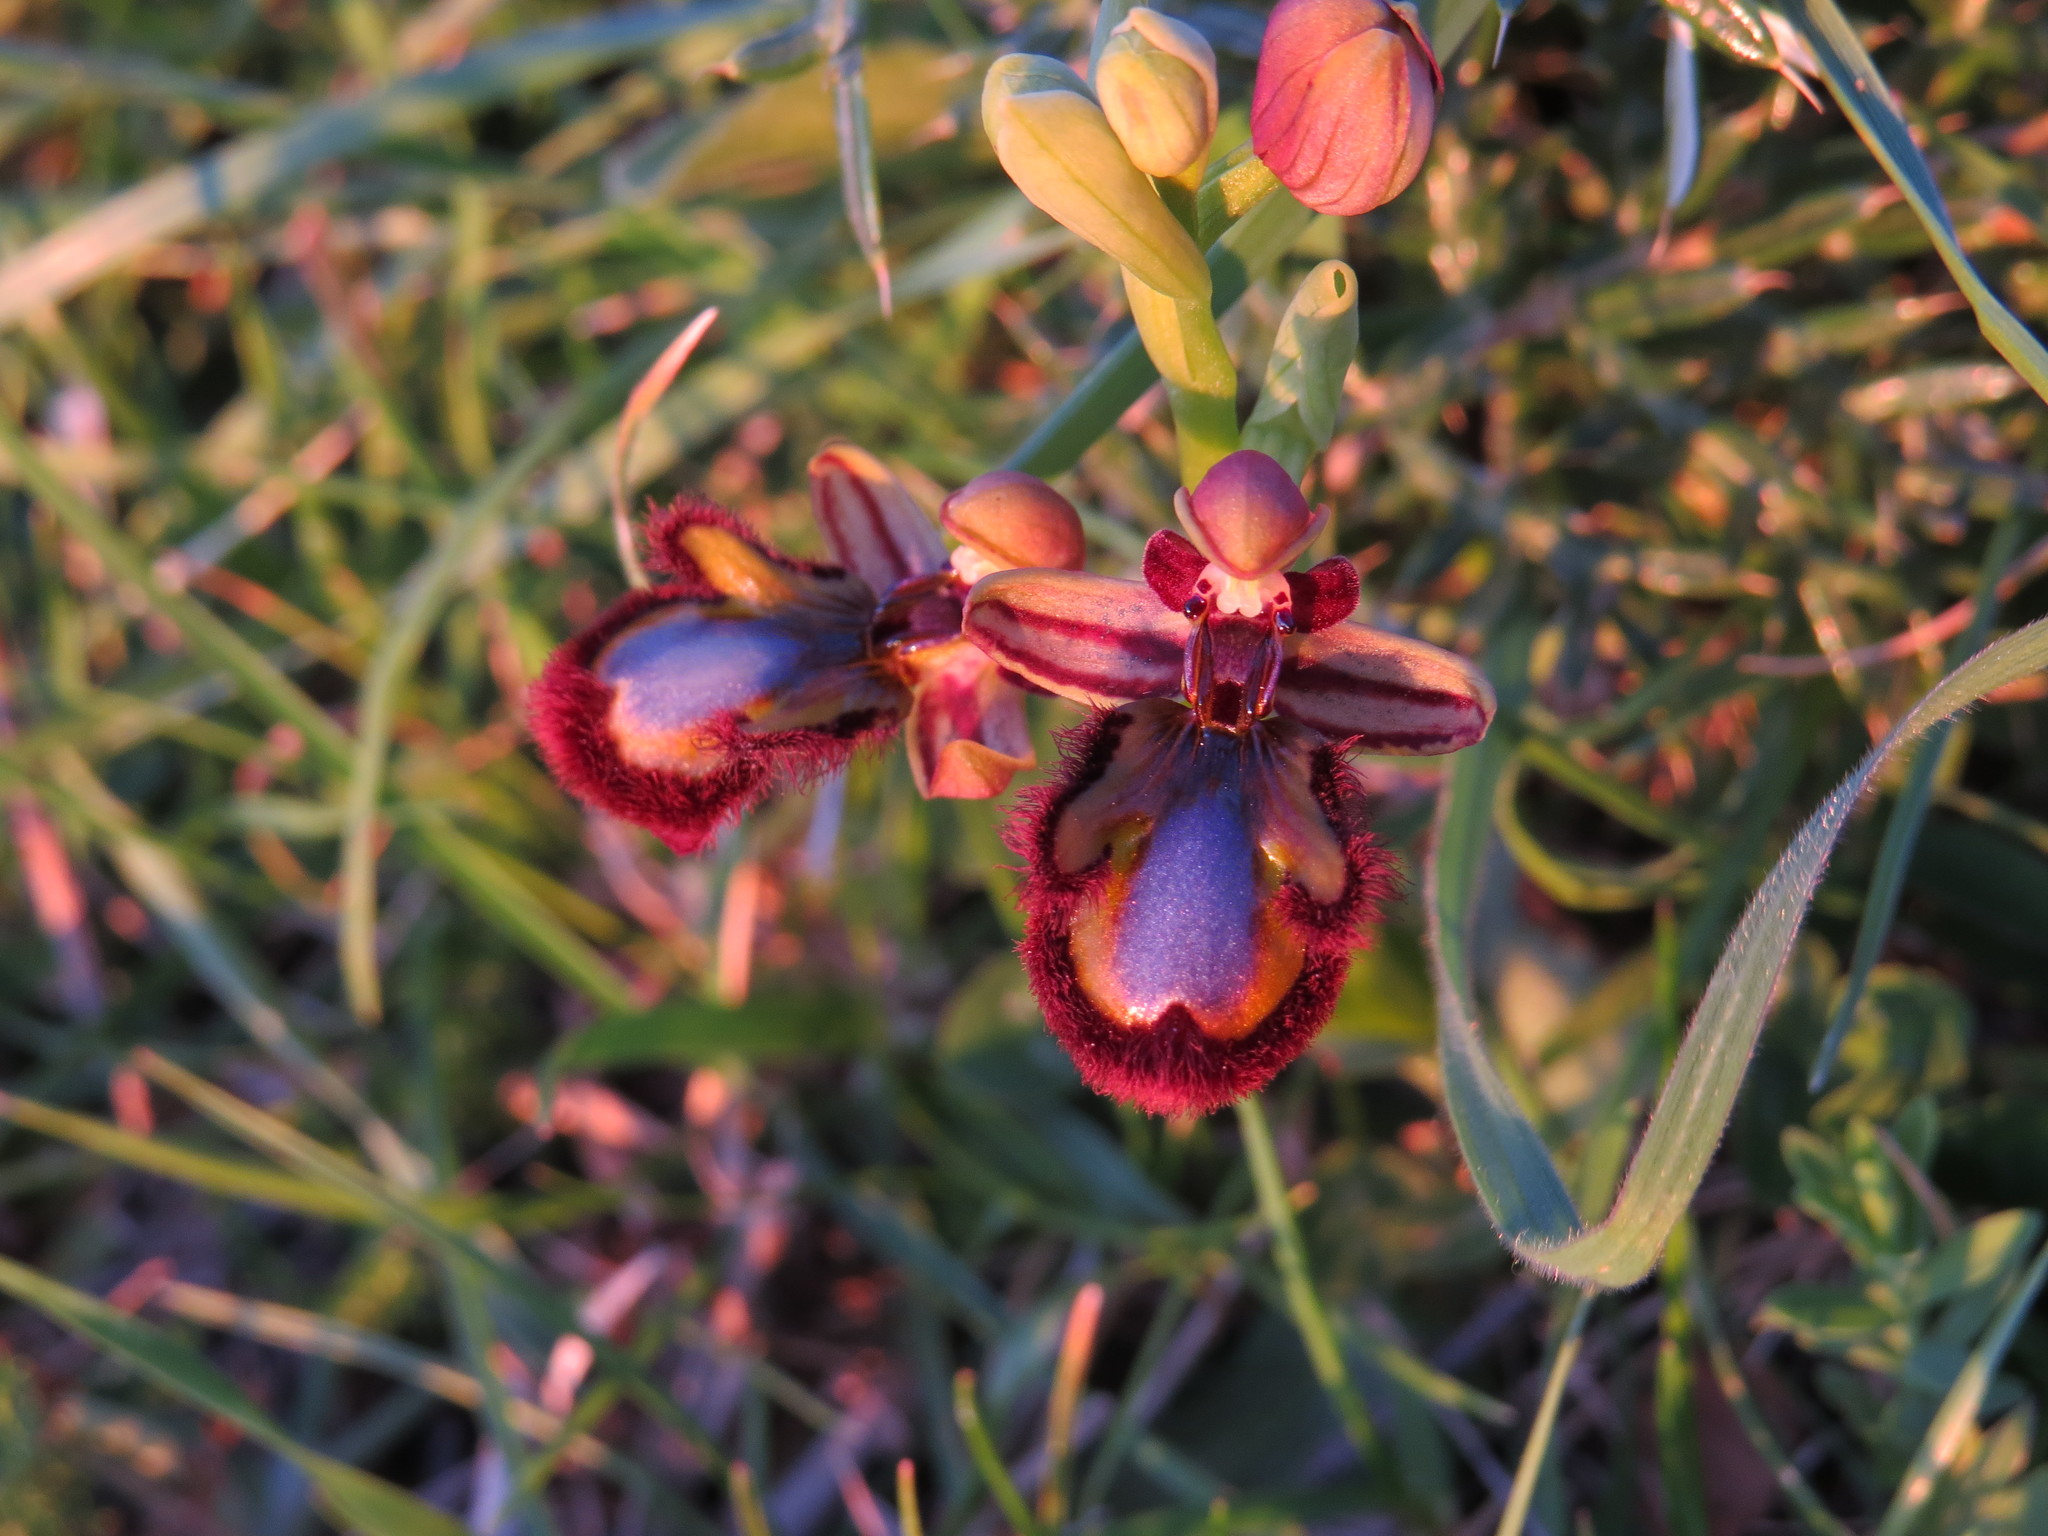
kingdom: Plantae
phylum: Tracheophyta
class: Liliopsida
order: Asparagales
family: Orchidaceae
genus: Ophrys
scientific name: Ophrys speculum
